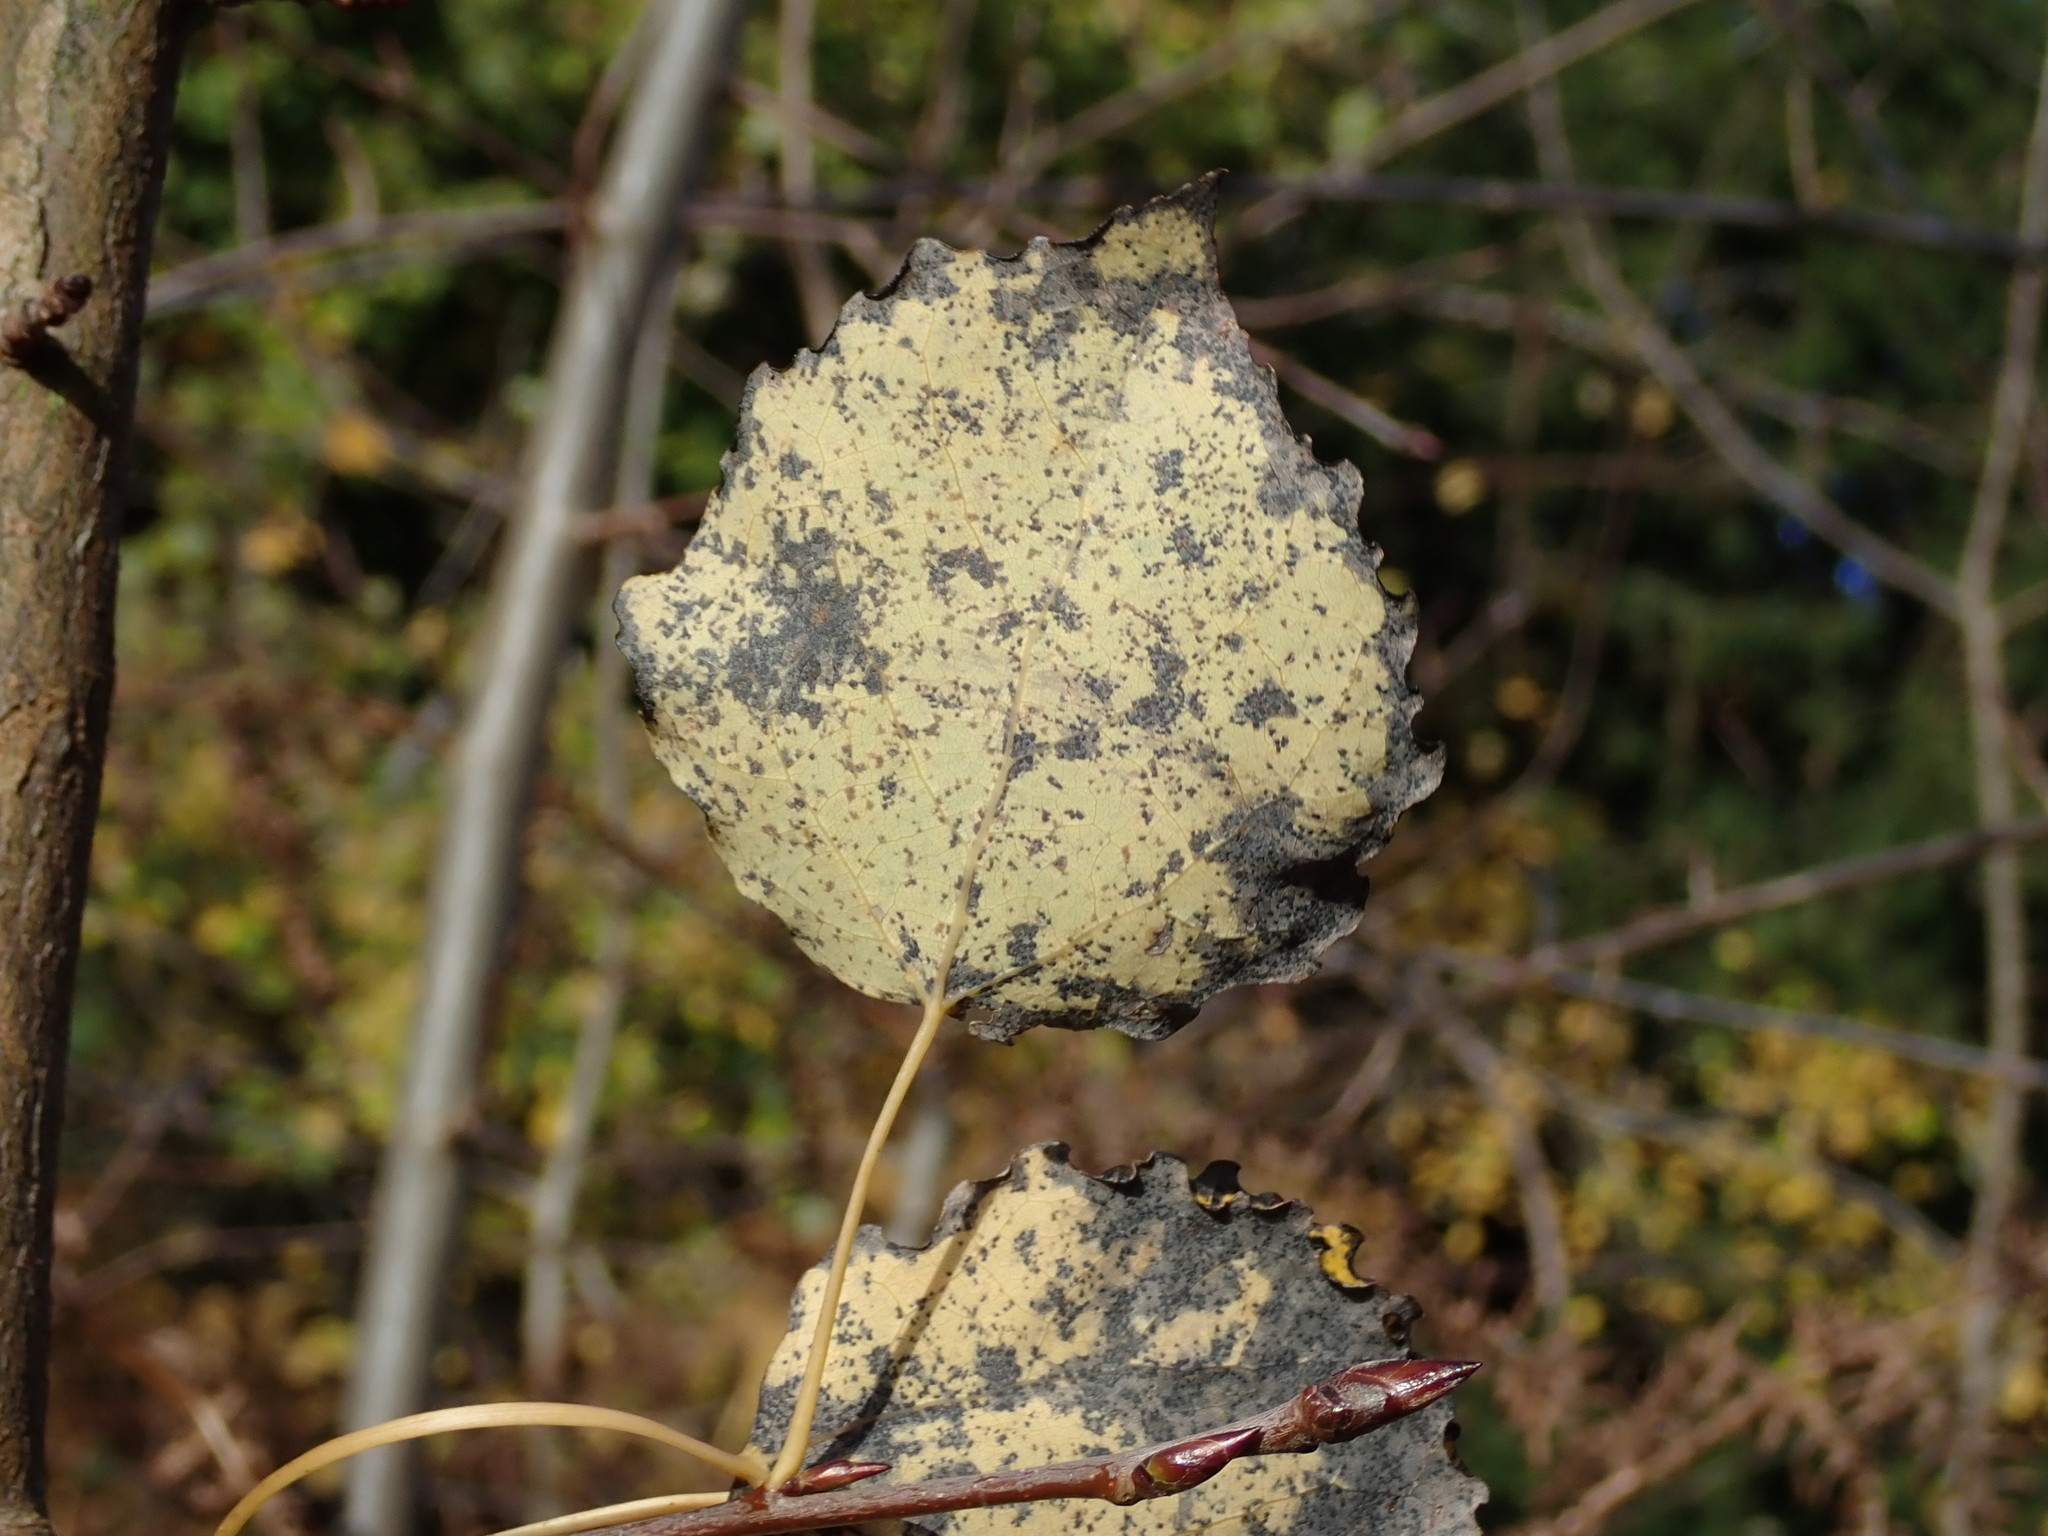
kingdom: Plantae
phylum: Tracheophyta
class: Magnoliopsida
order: Malpighiales
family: Salicaceae
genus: Populus
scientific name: Populus tremula
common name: European aspen
